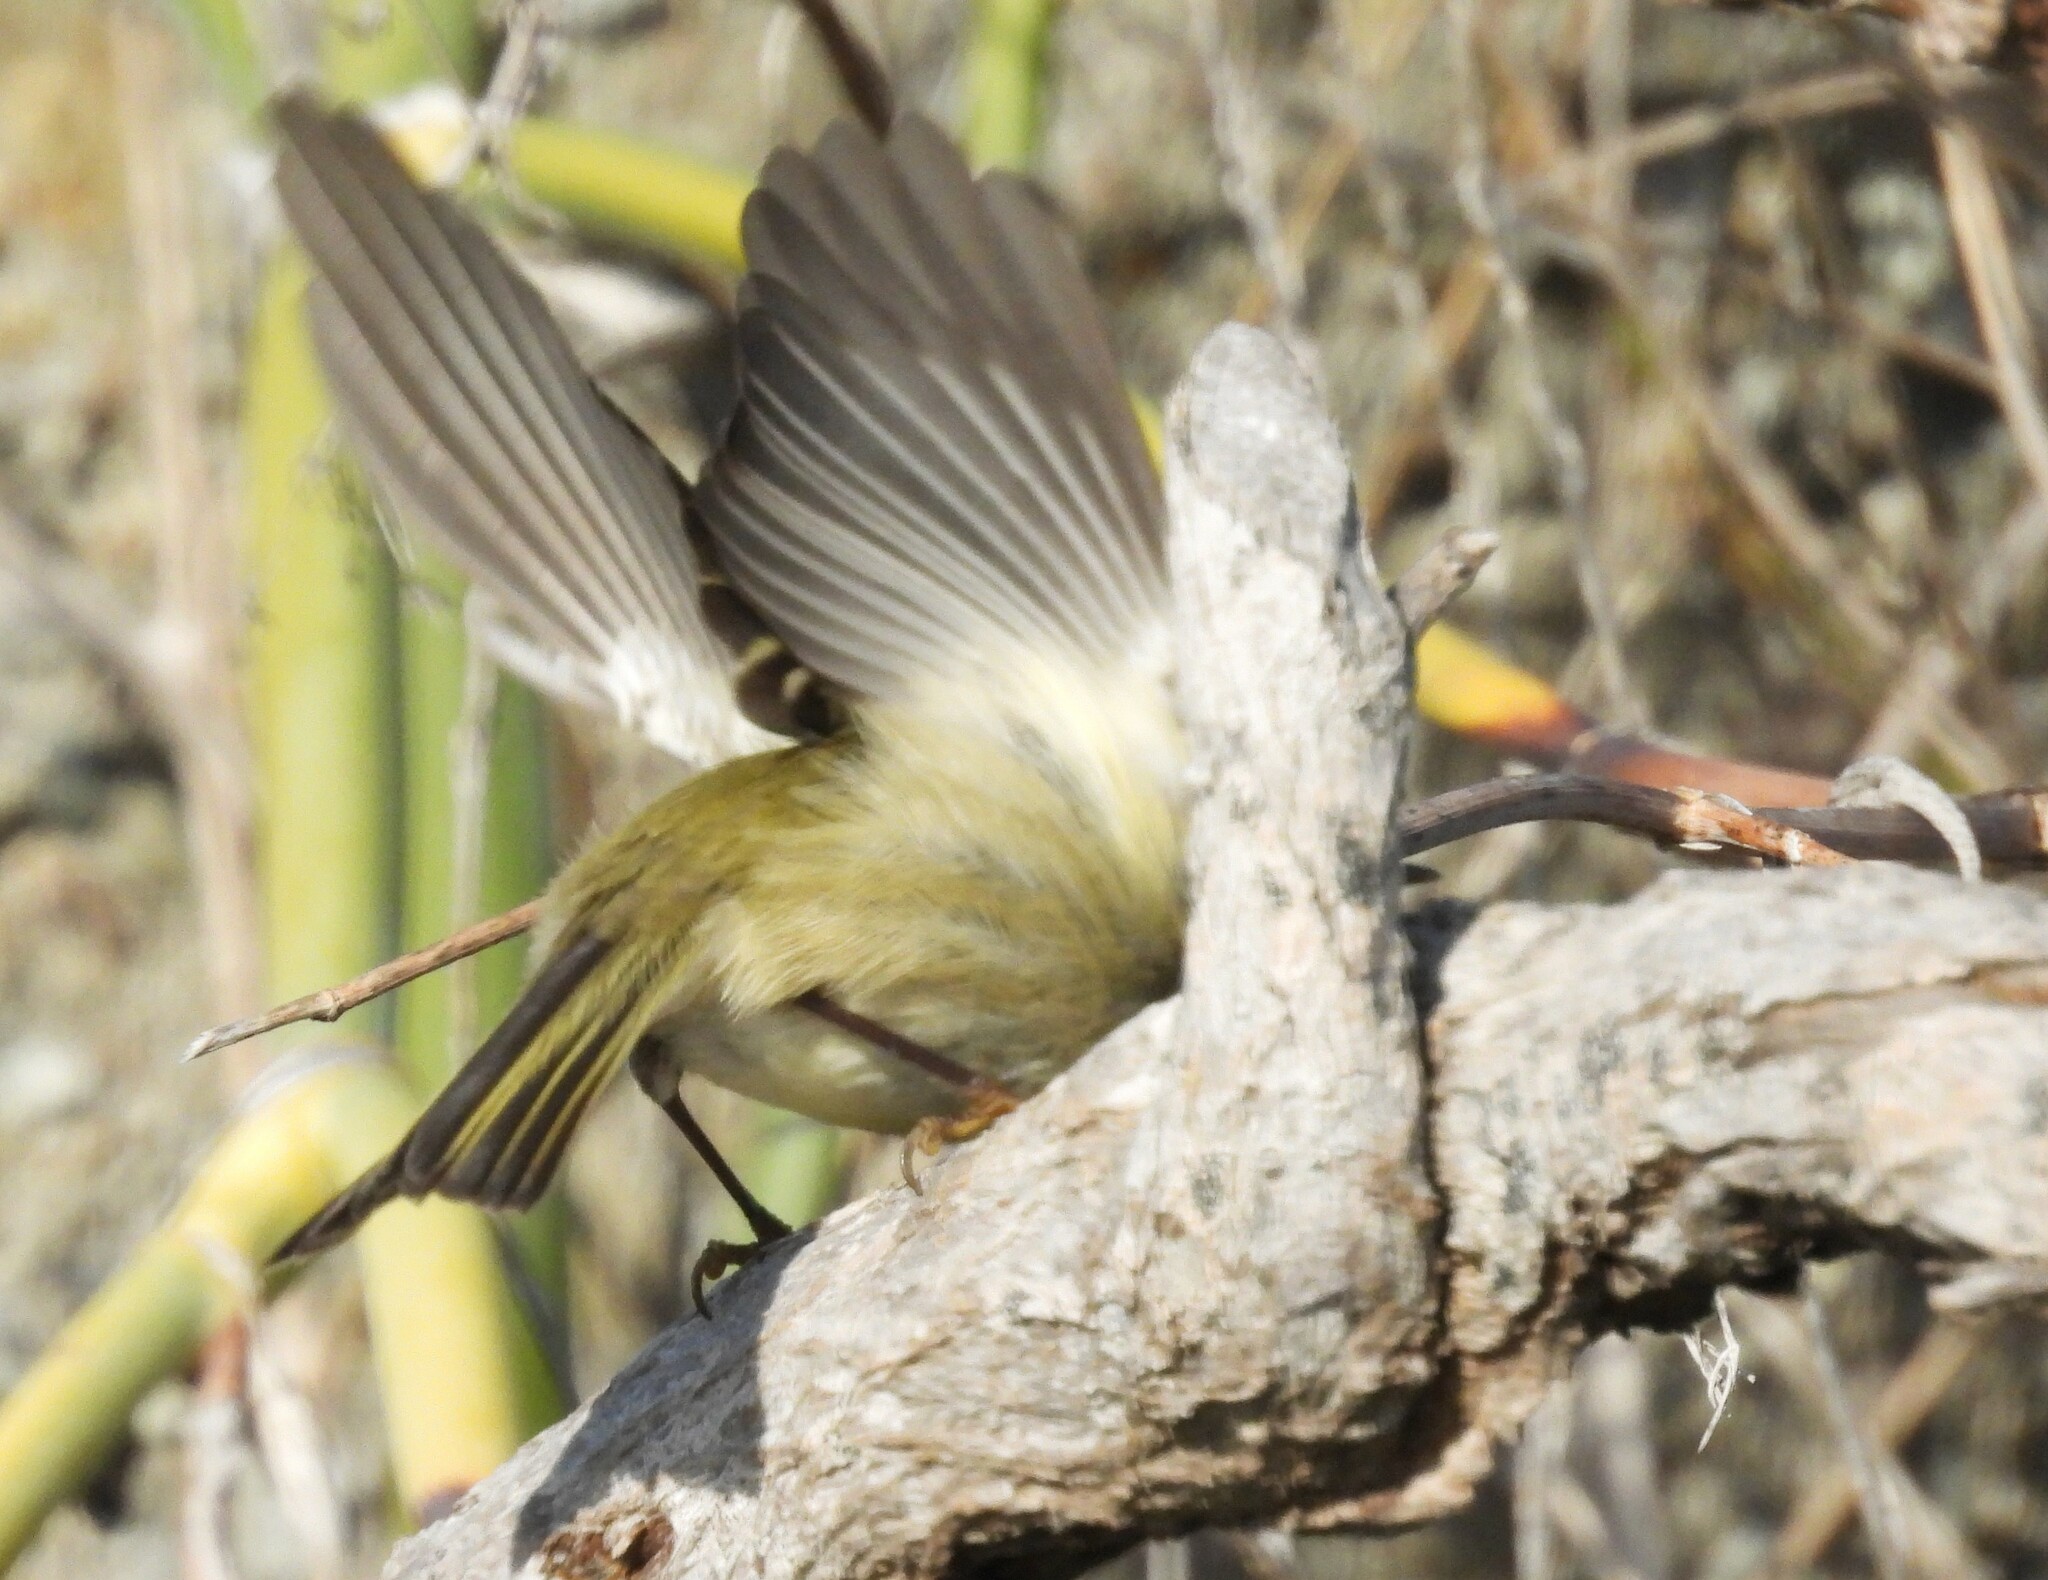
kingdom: Animalia
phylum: Chordata
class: Aves
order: Passeriformes
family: Regulidae
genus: Regulus
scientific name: Regulus calendula
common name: Ruby-crowned kinglet
